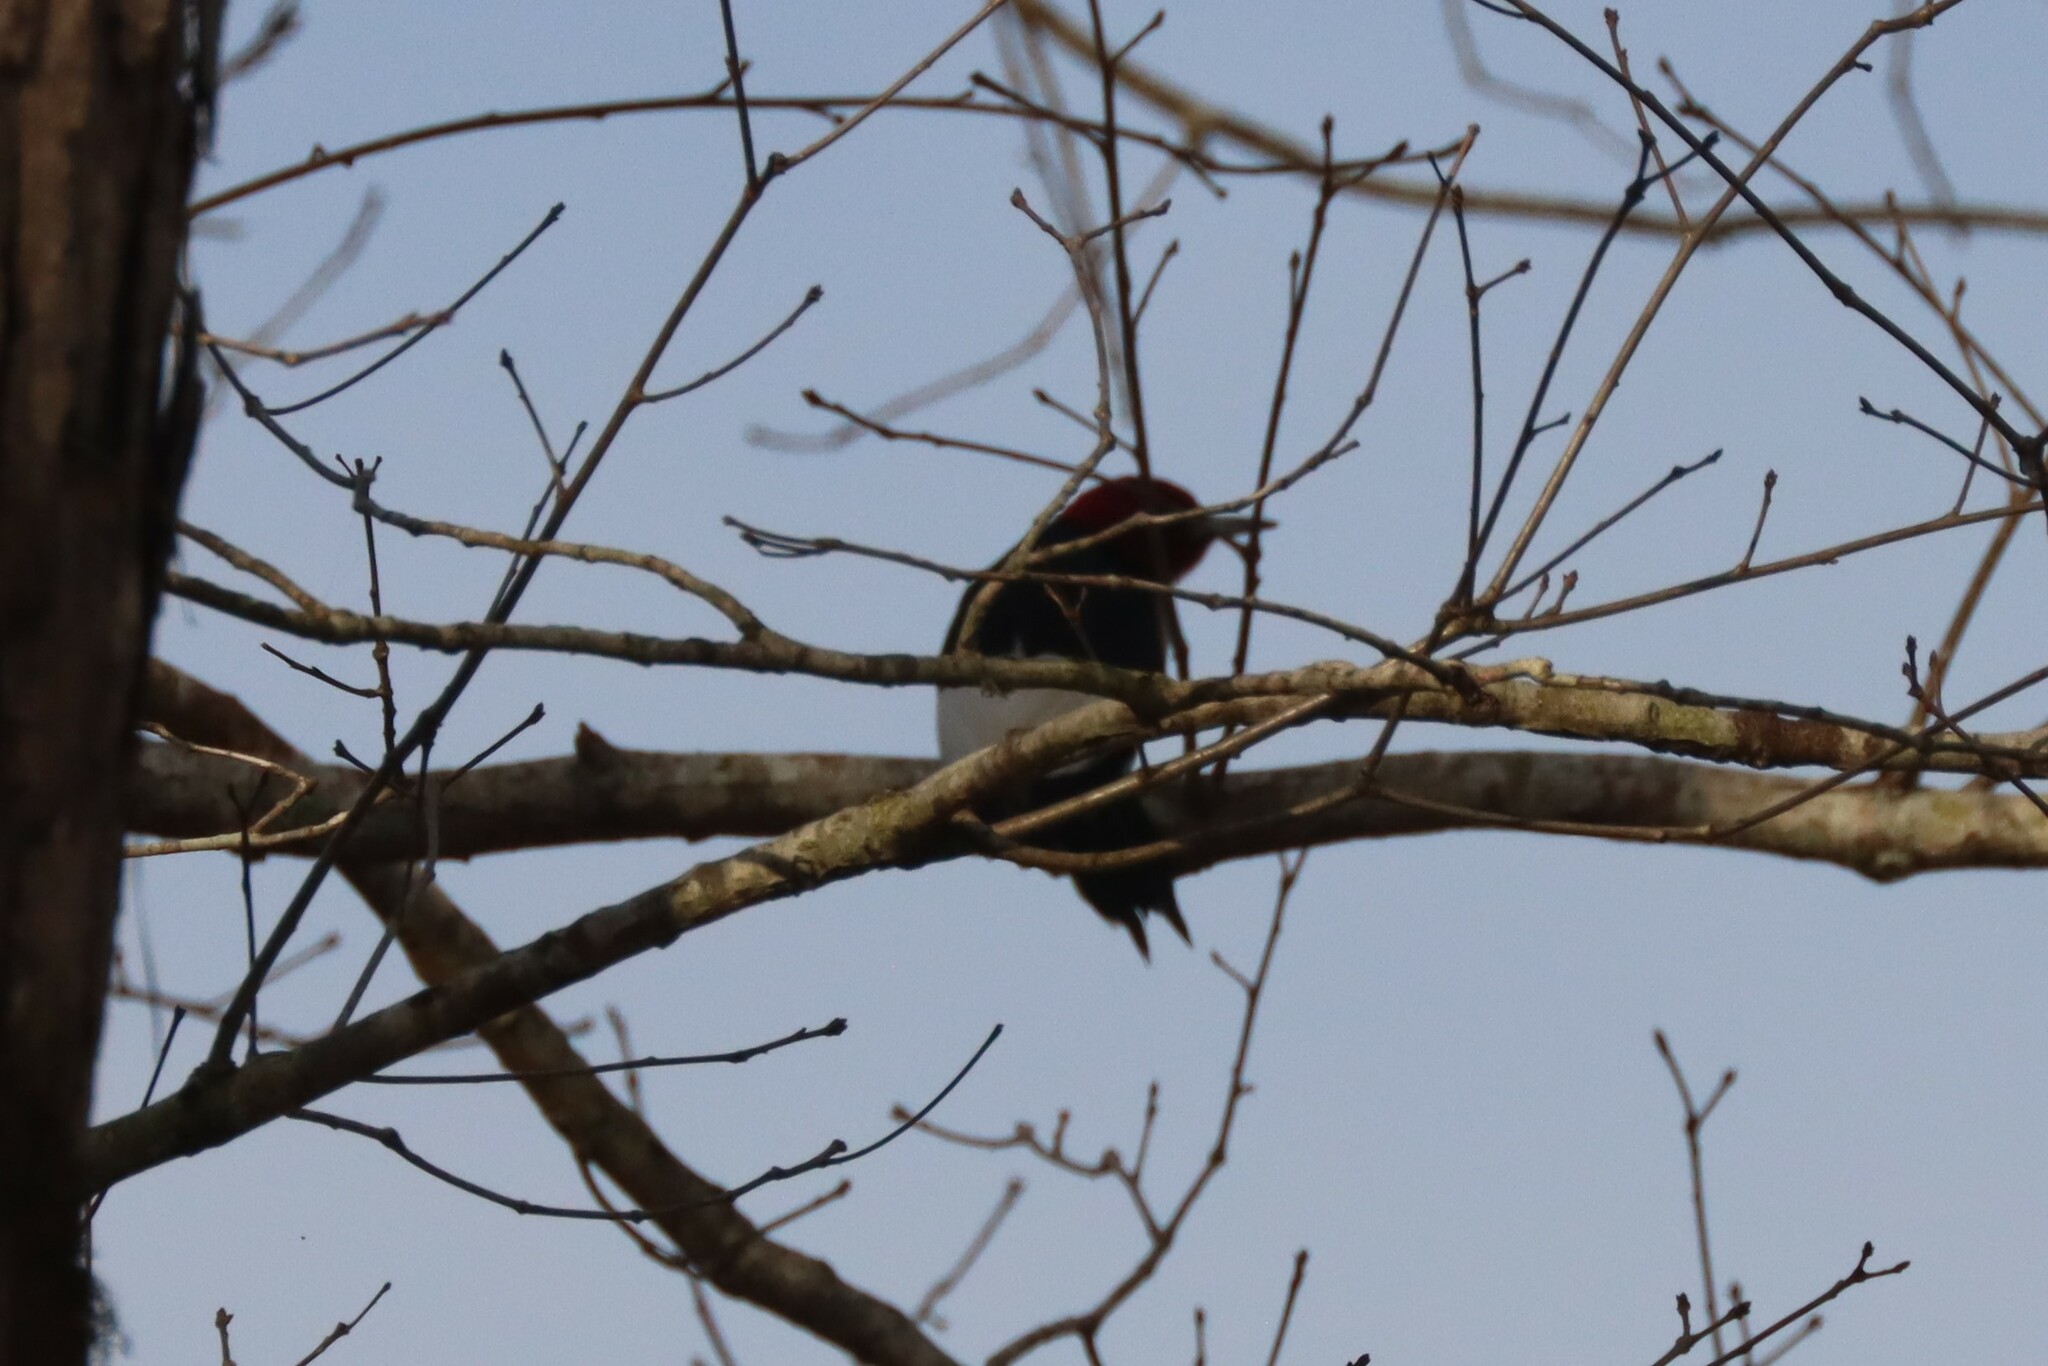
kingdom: Animalia
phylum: Chordata
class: Aves
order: Piciformes
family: Picidae
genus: Melanerpes
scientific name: Melanerpes erythrocephalus
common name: Red-headed woodpecker
